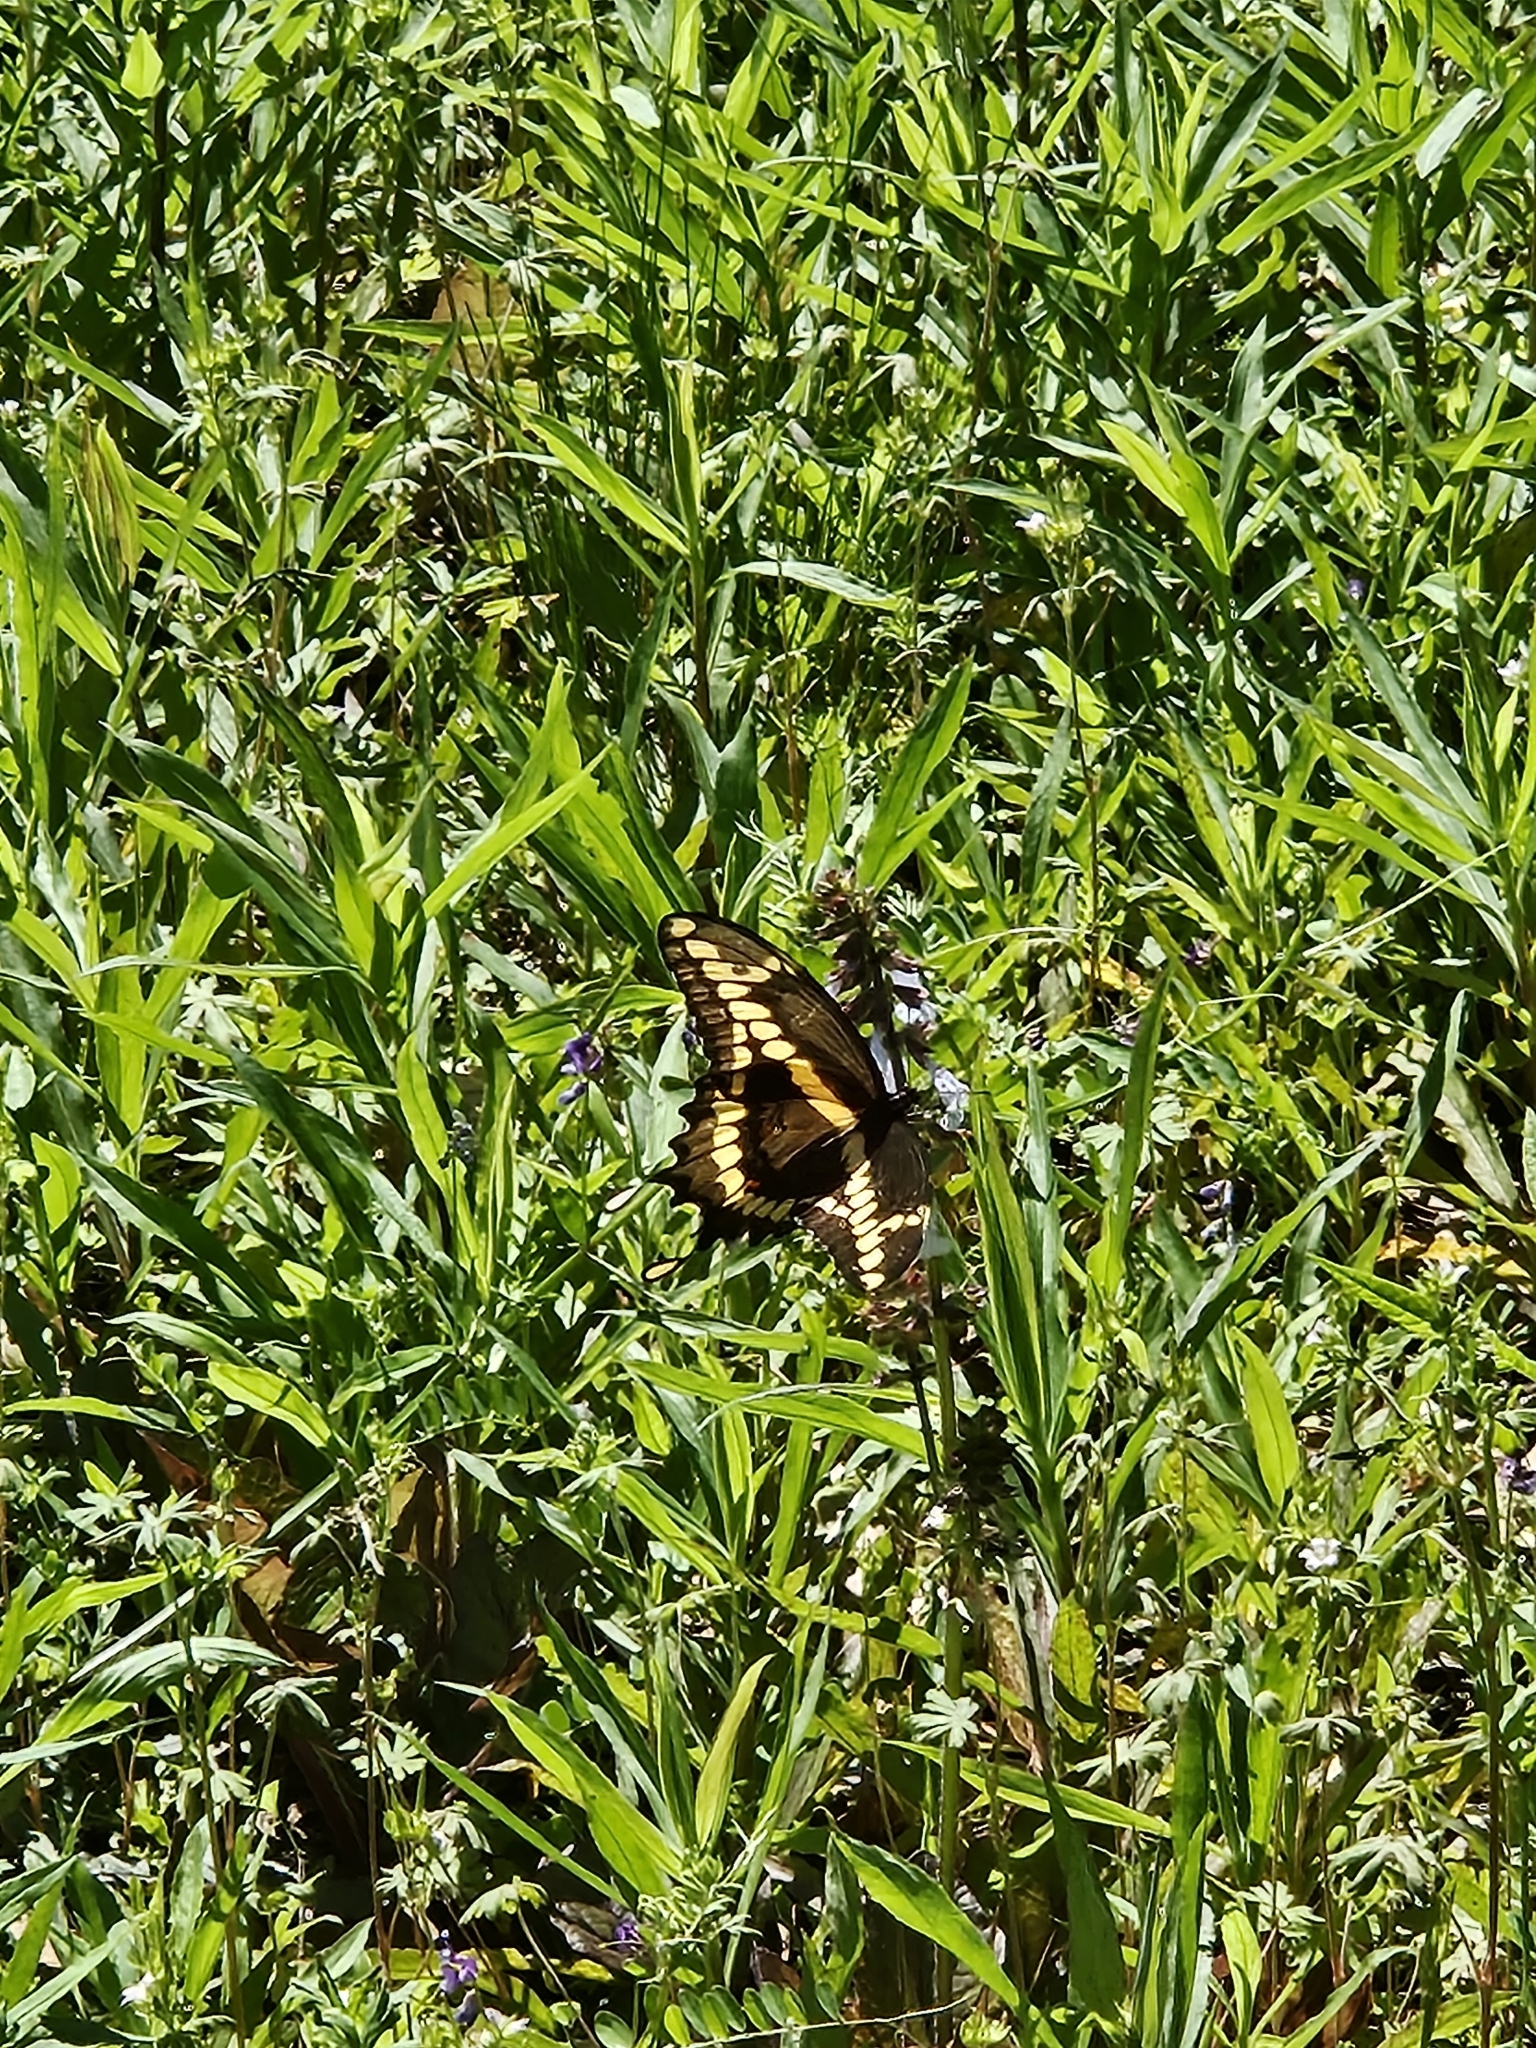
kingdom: Animalia
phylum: Arthropoda
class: Insecta
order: Lepidoptera
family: Papilionidae
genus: Papilio
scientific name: Papilio cresphontes
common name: Giant swallowtail
